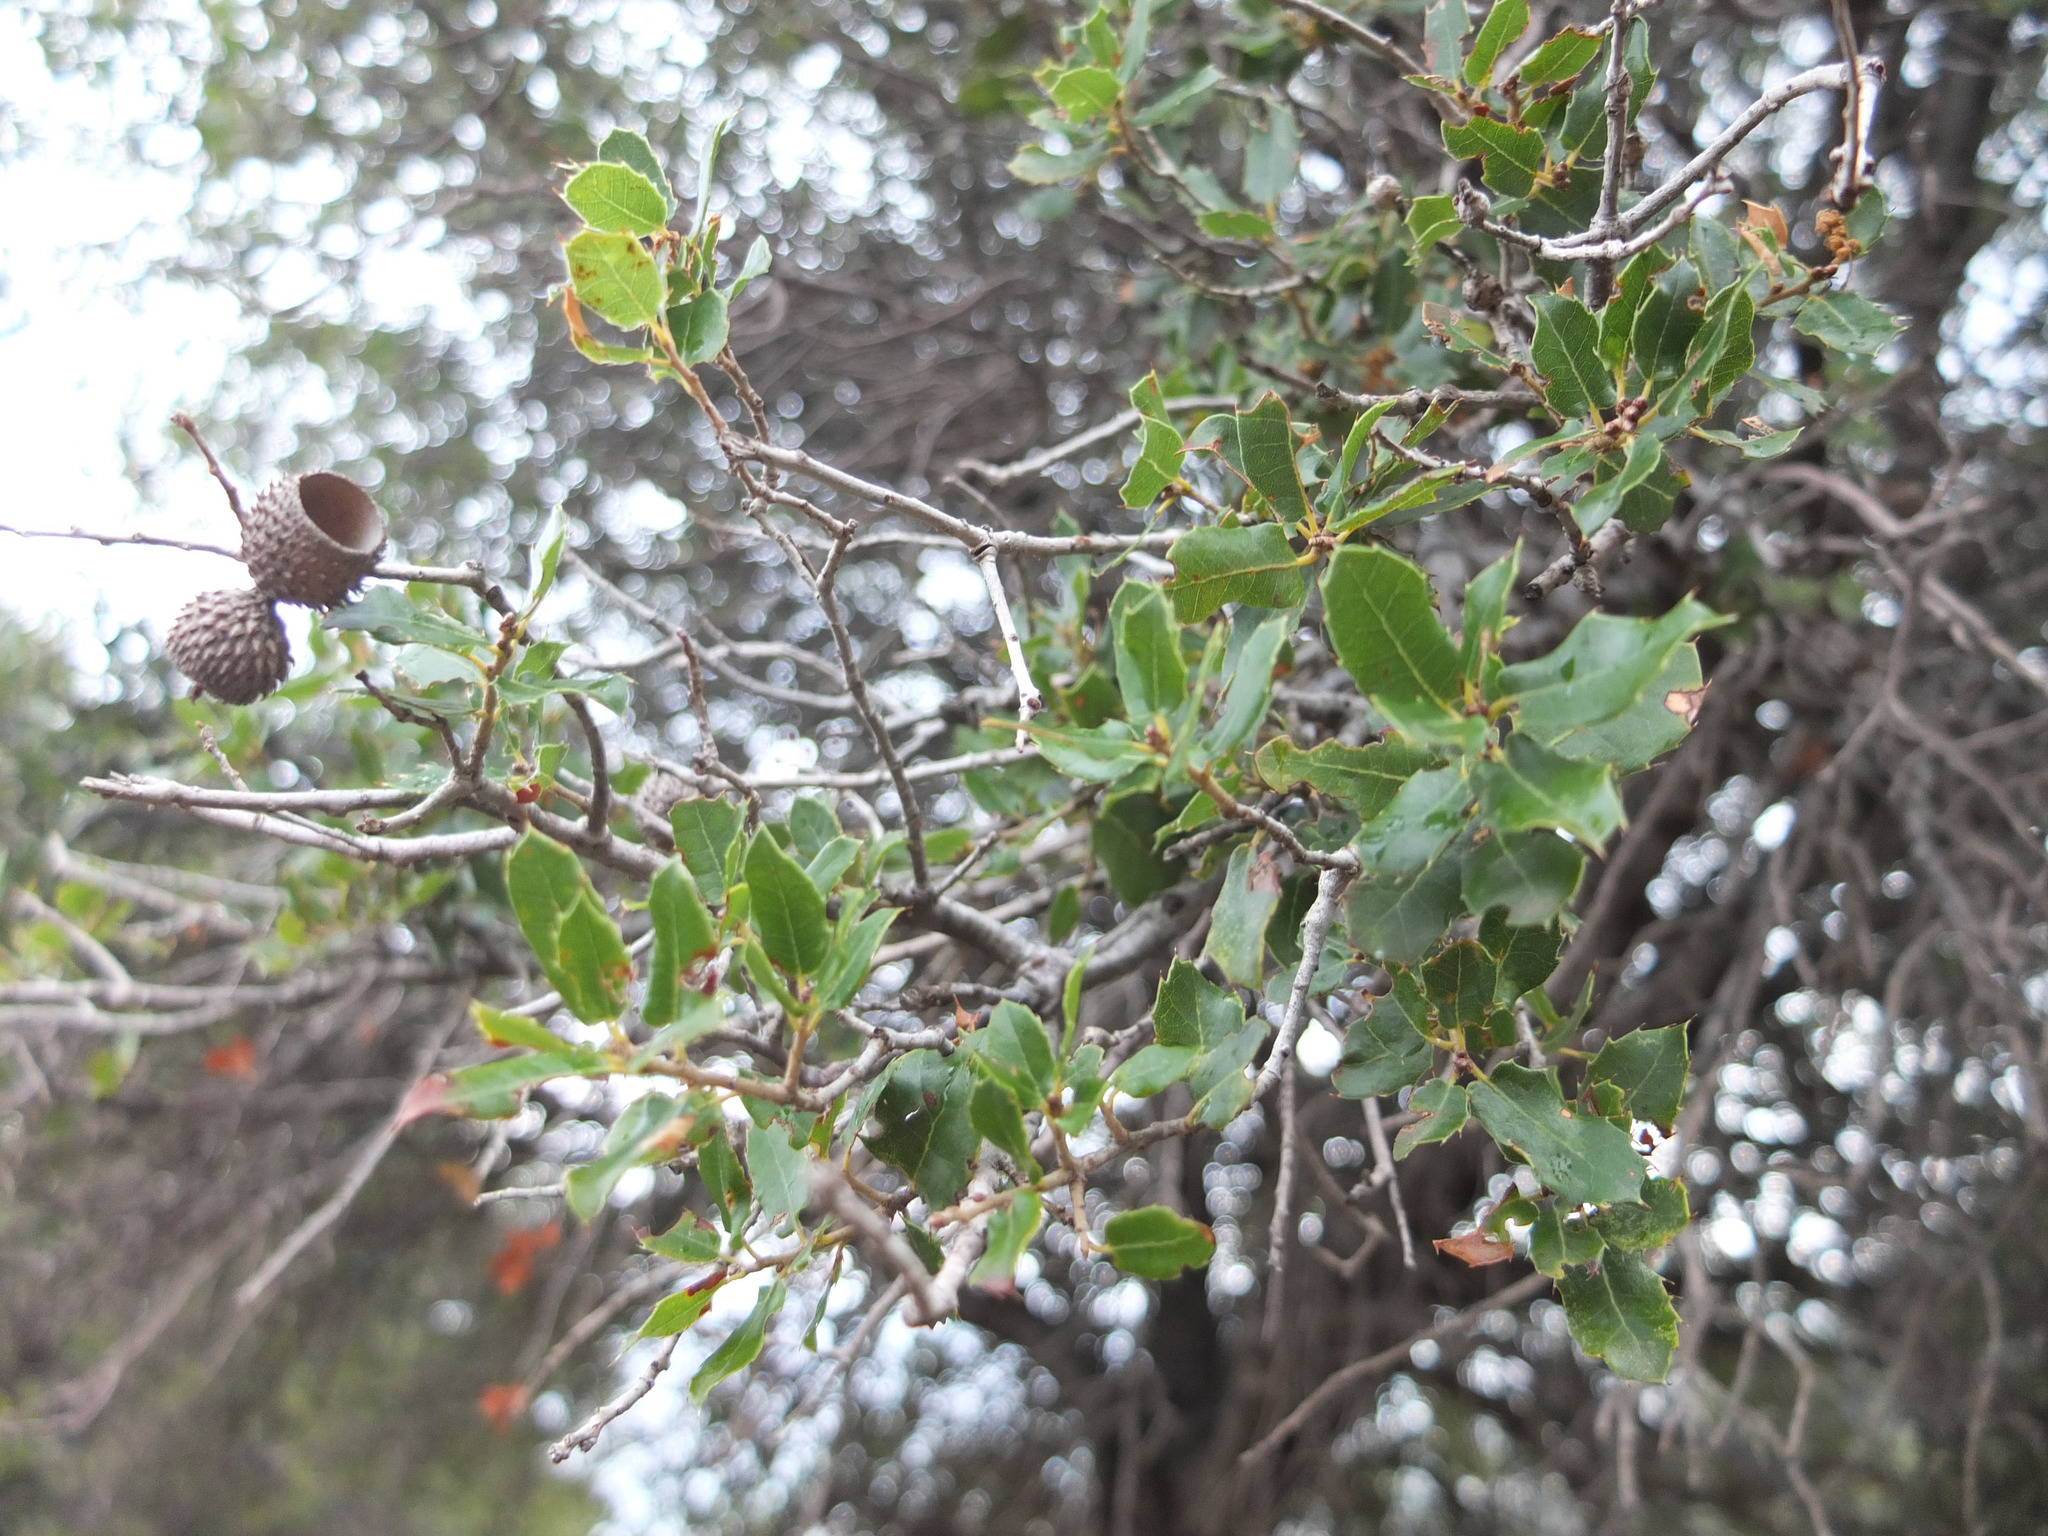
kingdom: Plantae
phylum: Tracheophyta
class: Magnoliopsida
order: Fagales
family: Fagaceae
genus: Quercus
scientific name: Quercus coccifera
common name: Kermes oak
